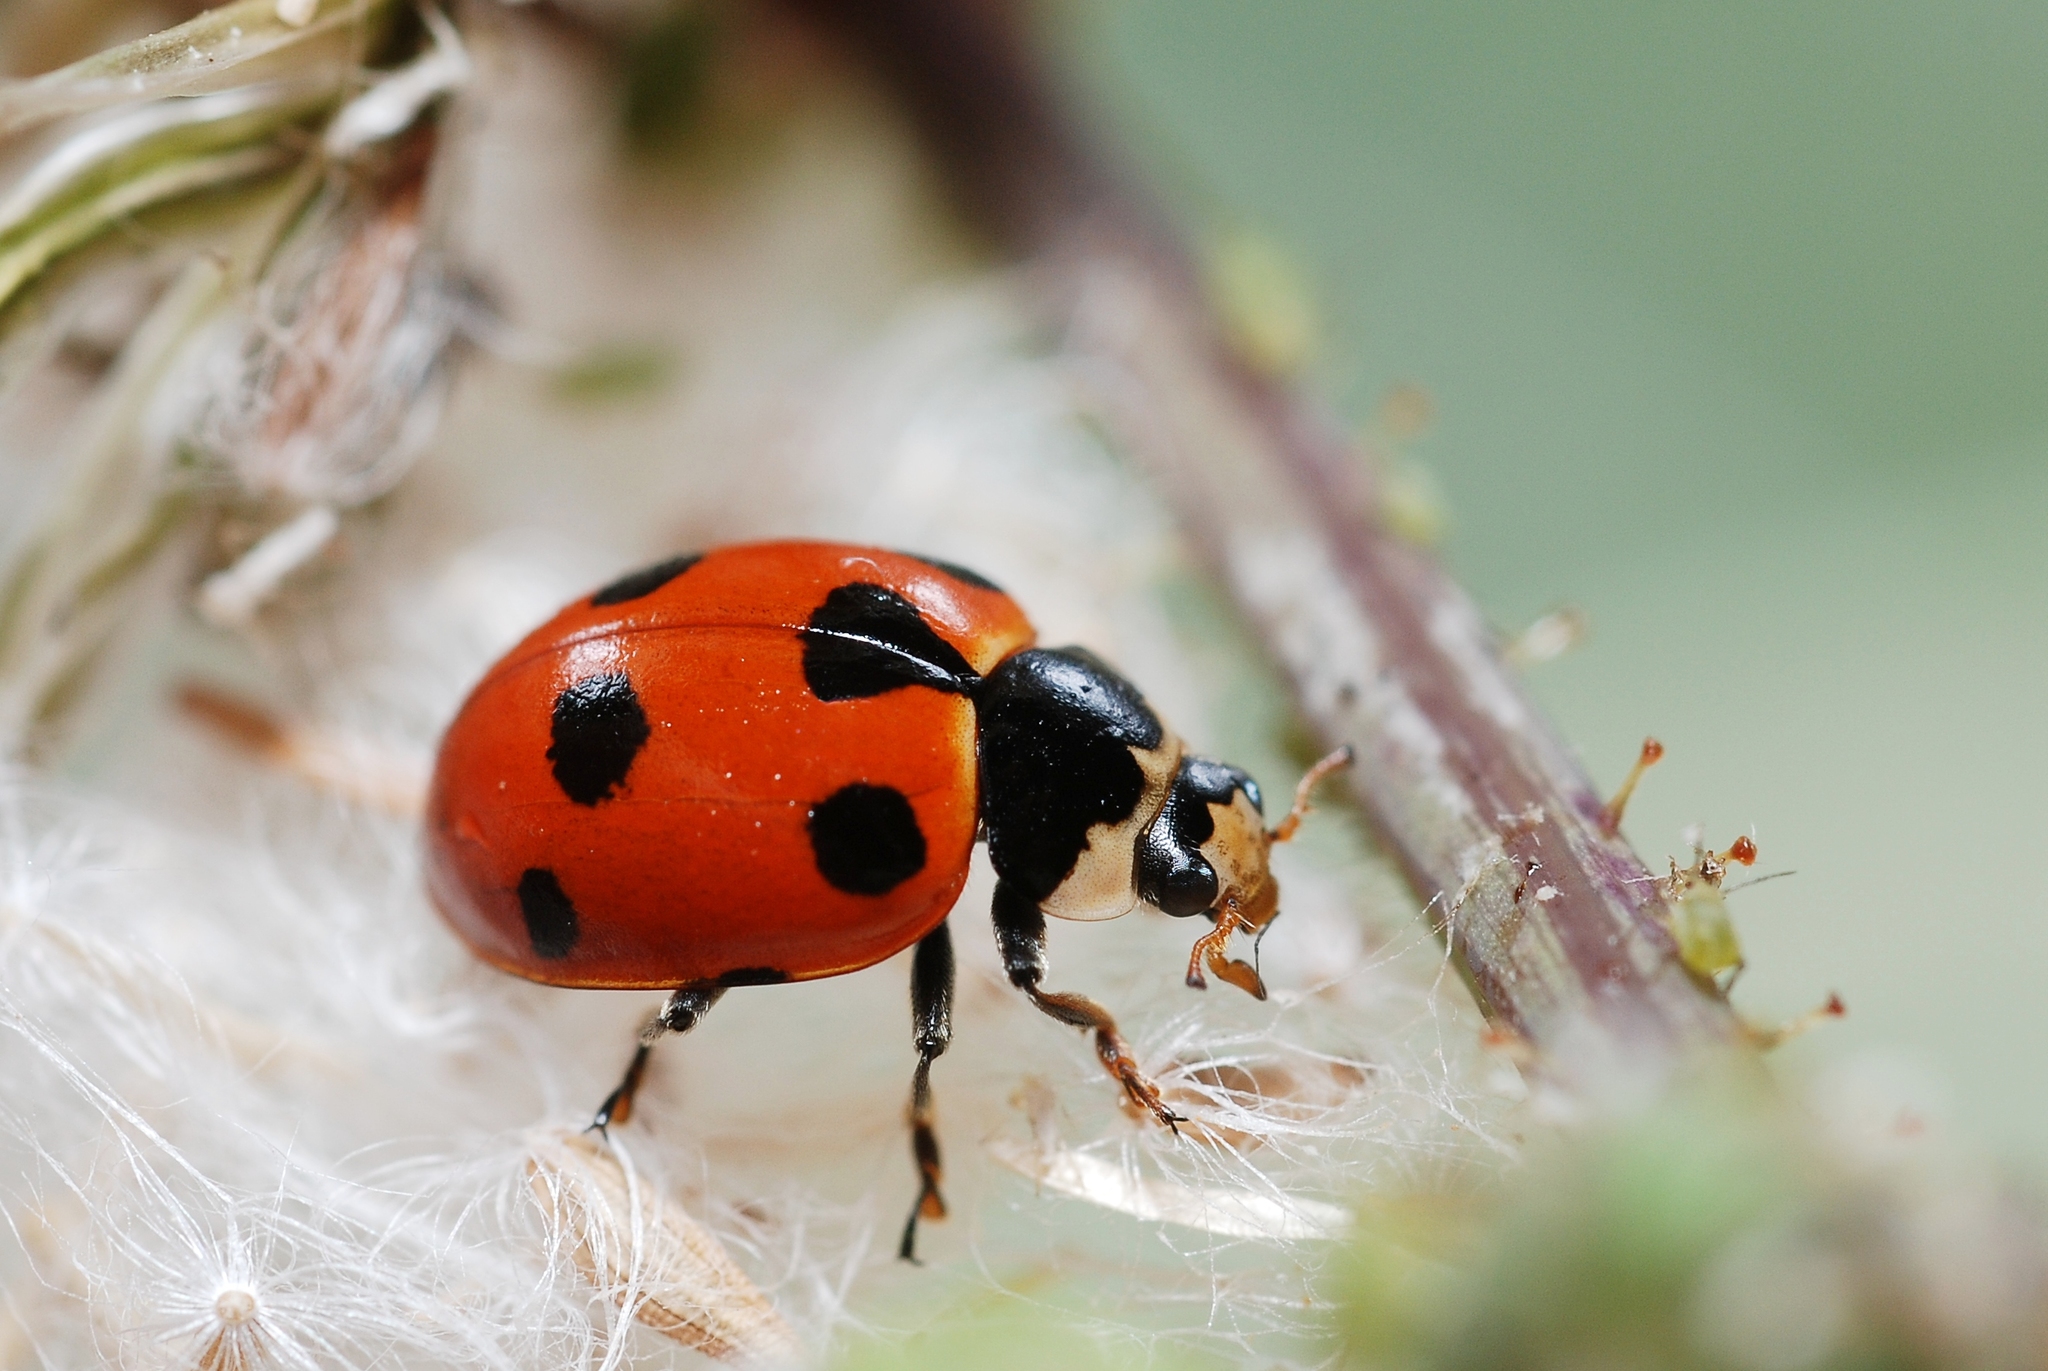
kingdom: Animalia
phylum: Arthropoda
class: Insecta
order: Coleoptera
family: Coccinellidae
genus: Ceratomegilla
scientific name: Ceratomegilla undecimnotata
